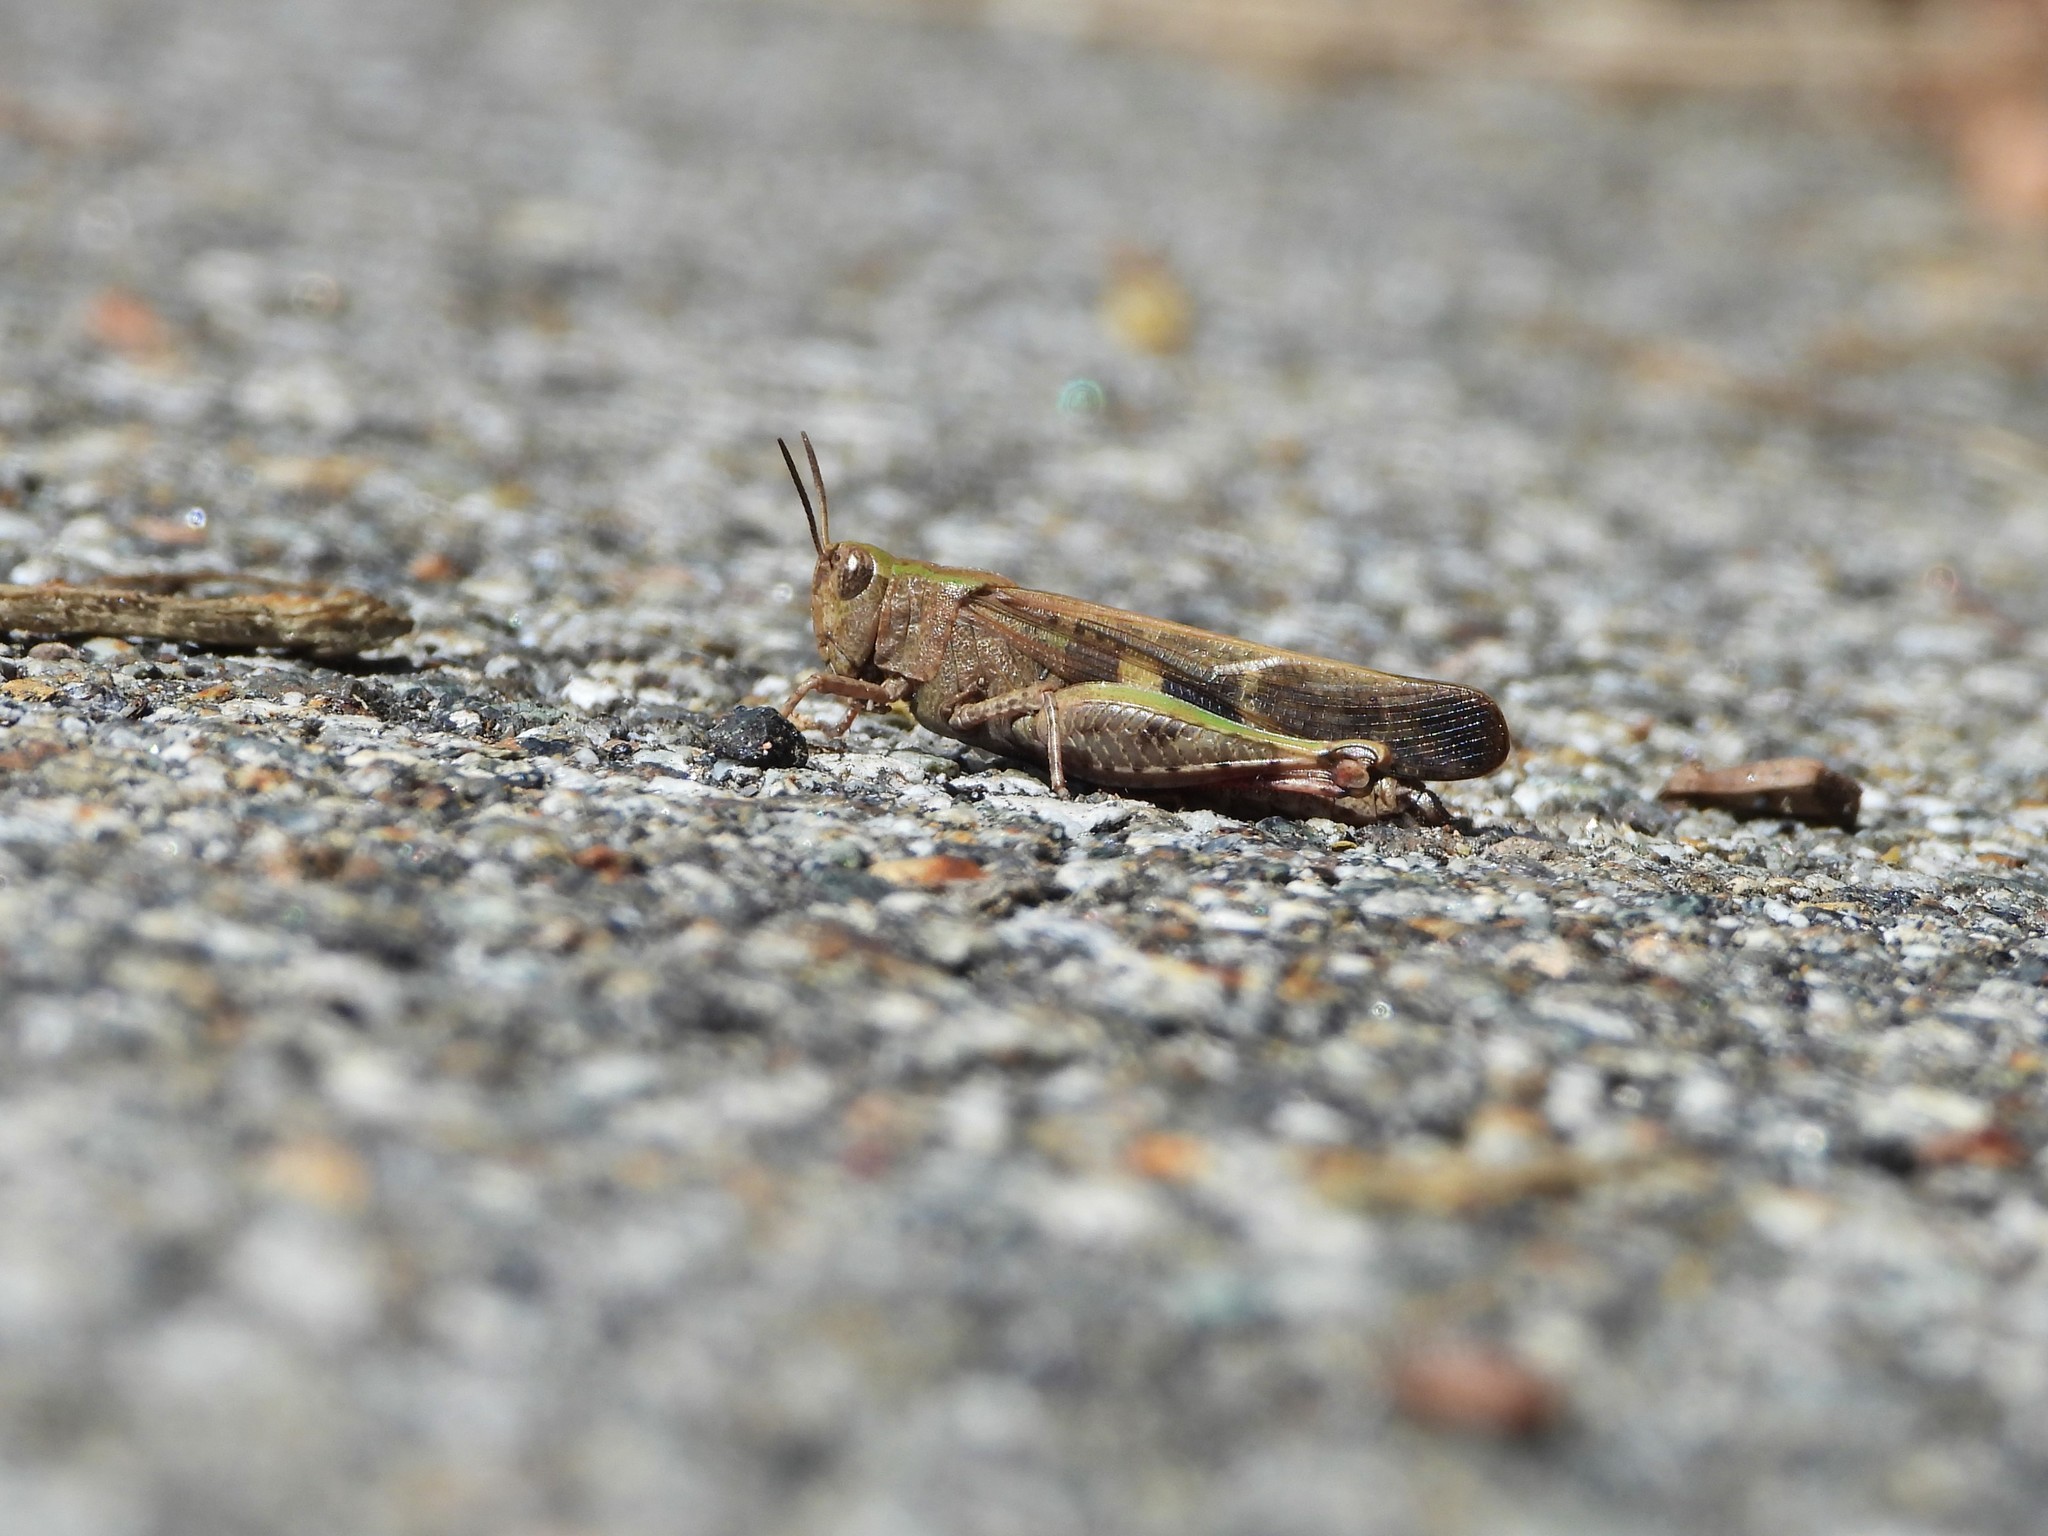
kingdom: Animalia
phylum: Arthropoda
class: Insecta
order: Orthoptera
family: Acrididae
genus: Aiolopus
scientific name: Aiolopus strepens
